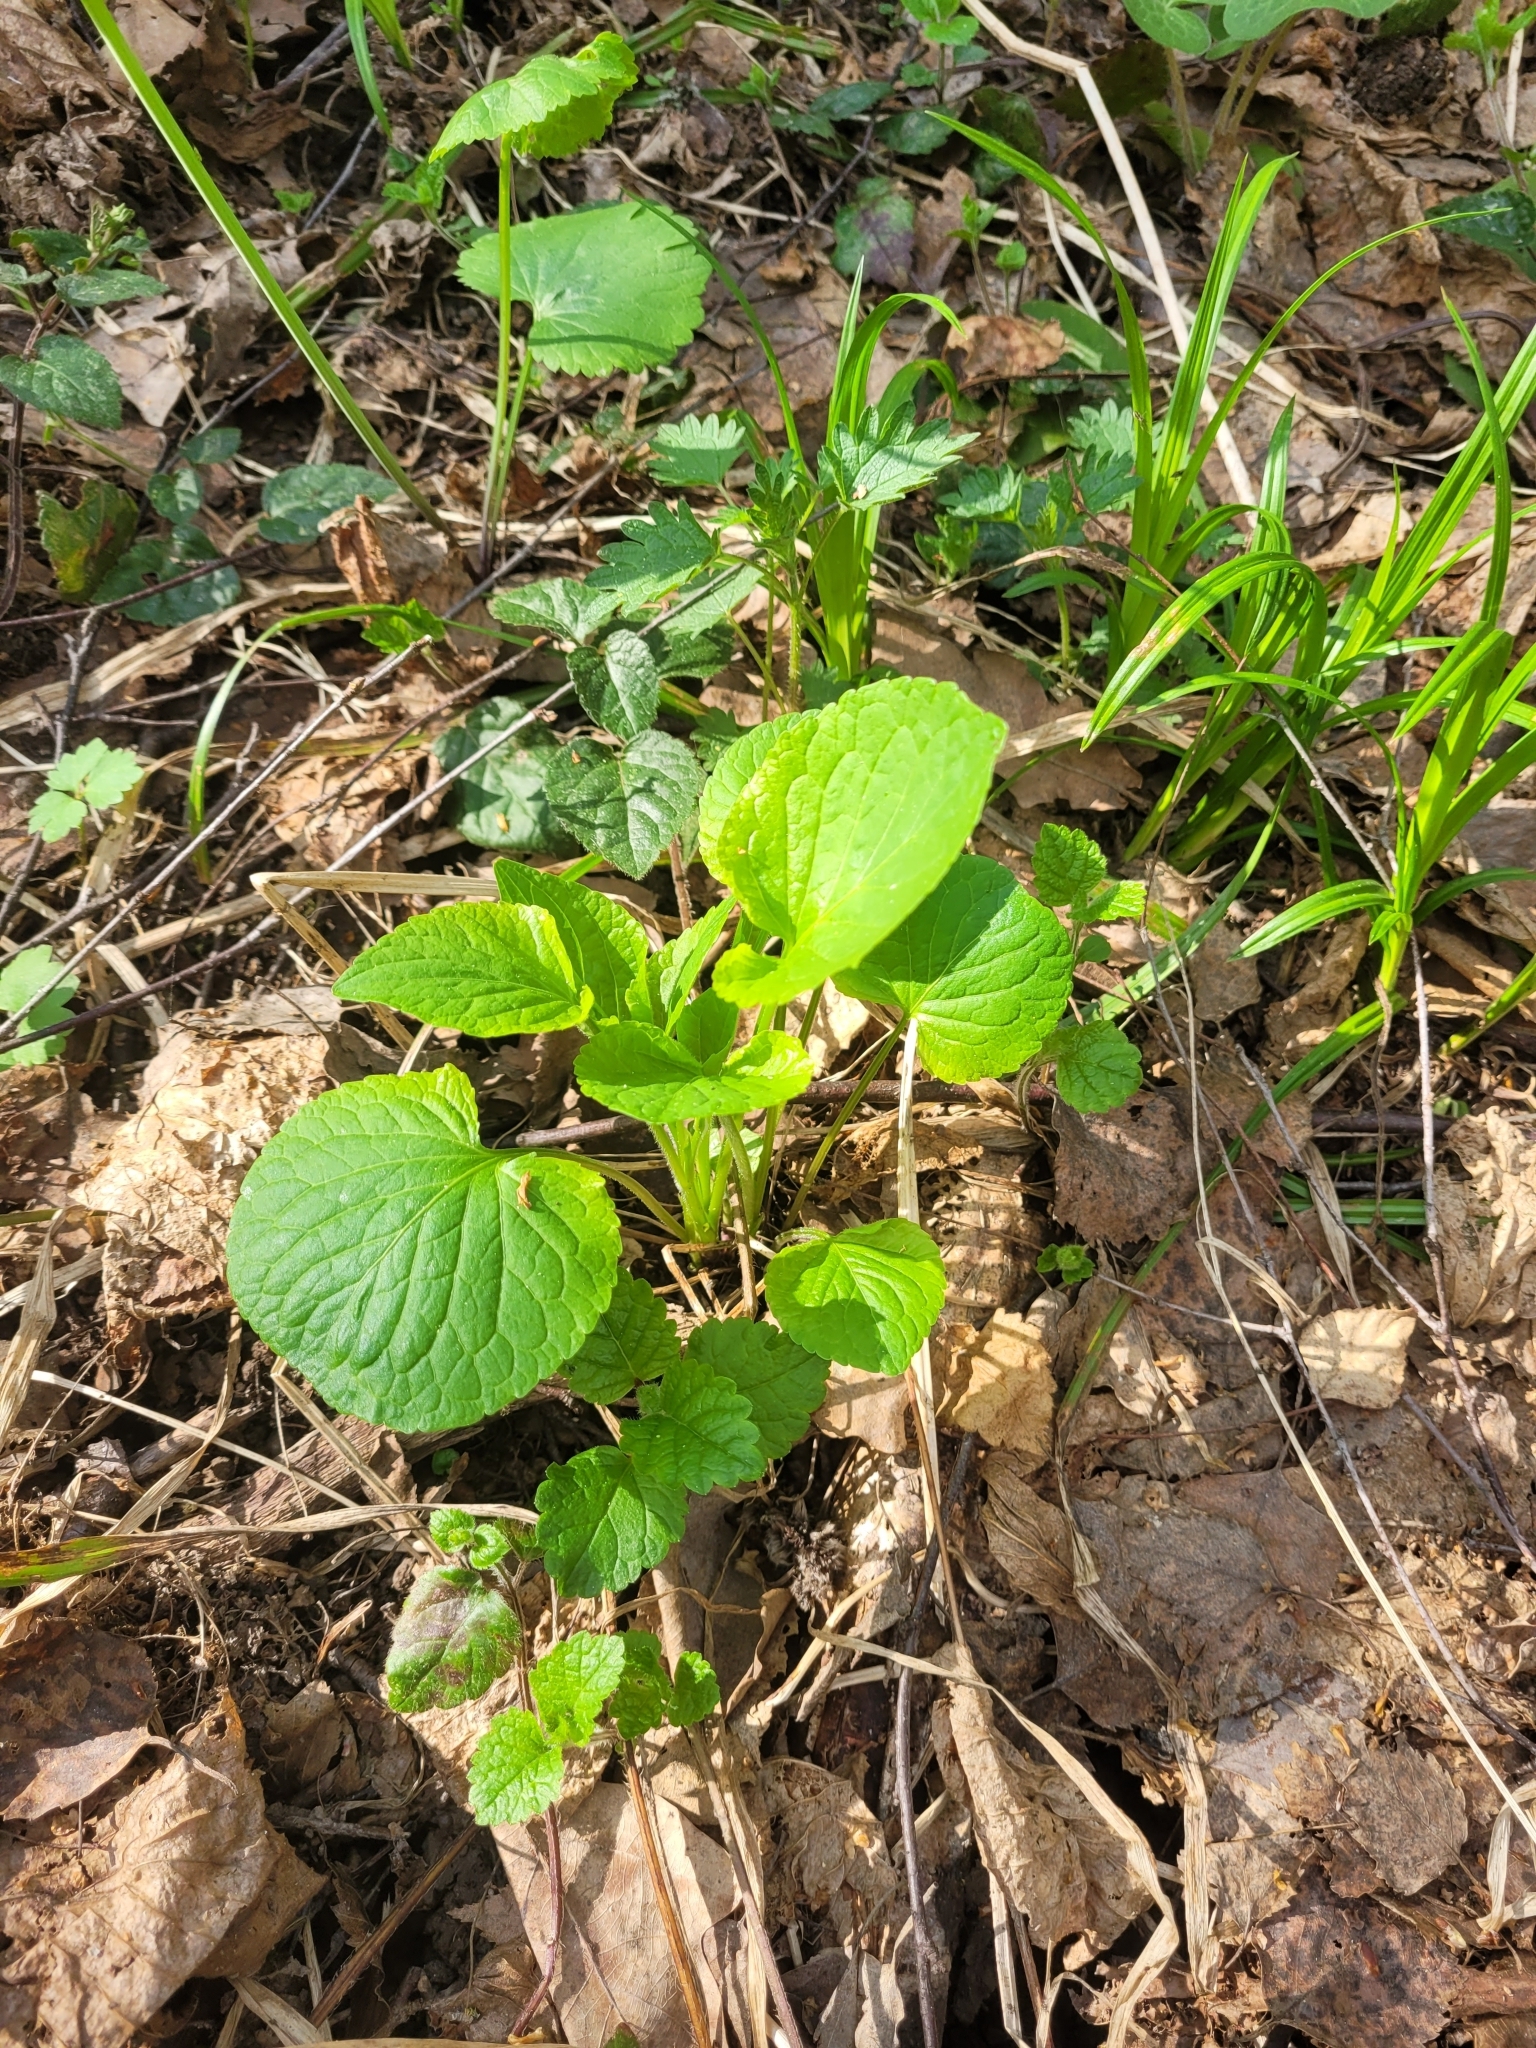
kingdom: Plantae
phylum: Tracheophyta
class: Magnoliopsida
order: Malpighiales
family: Violaceae
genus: Viola
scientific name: Viola mirabilis
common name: Wonder violet
